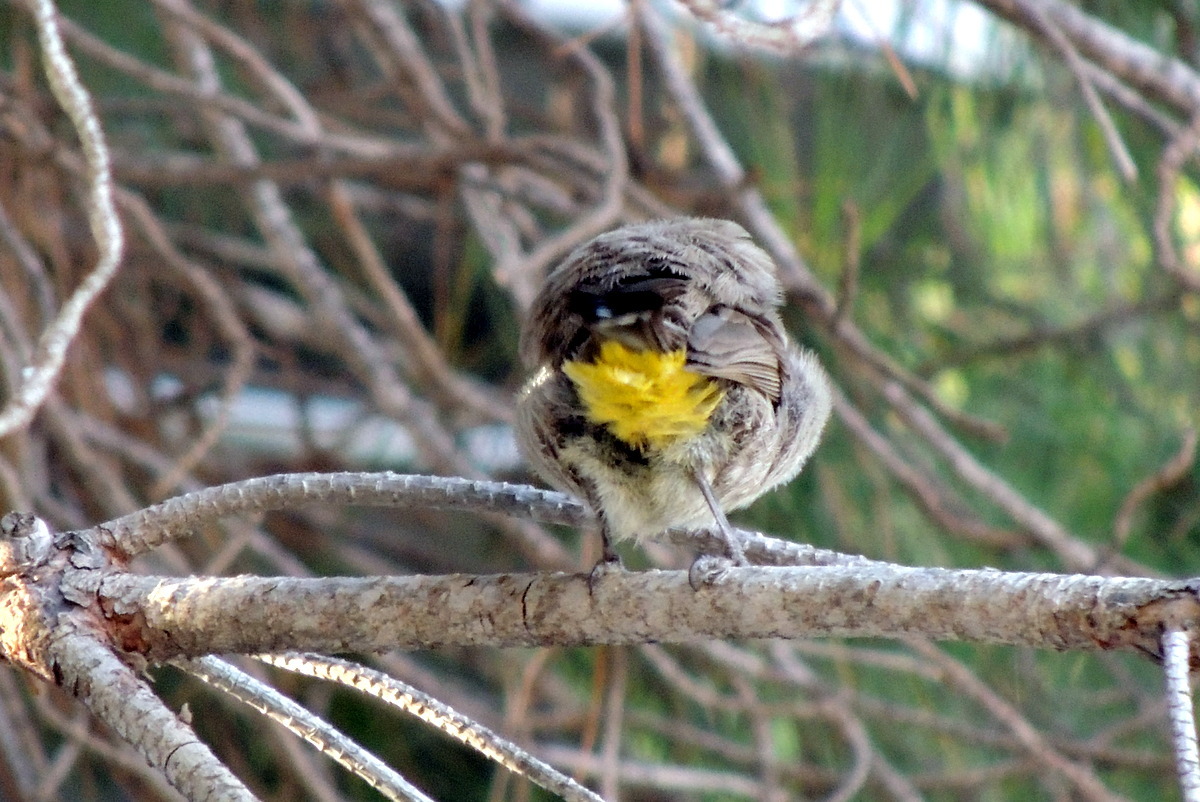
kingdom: Animalia
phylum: Chordata
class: Aves
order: Passeriformes
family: Pycnonotidae
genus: Pycnonotus
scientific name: Pycnonotus xanthopygos
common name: White-spectacled bulbul
